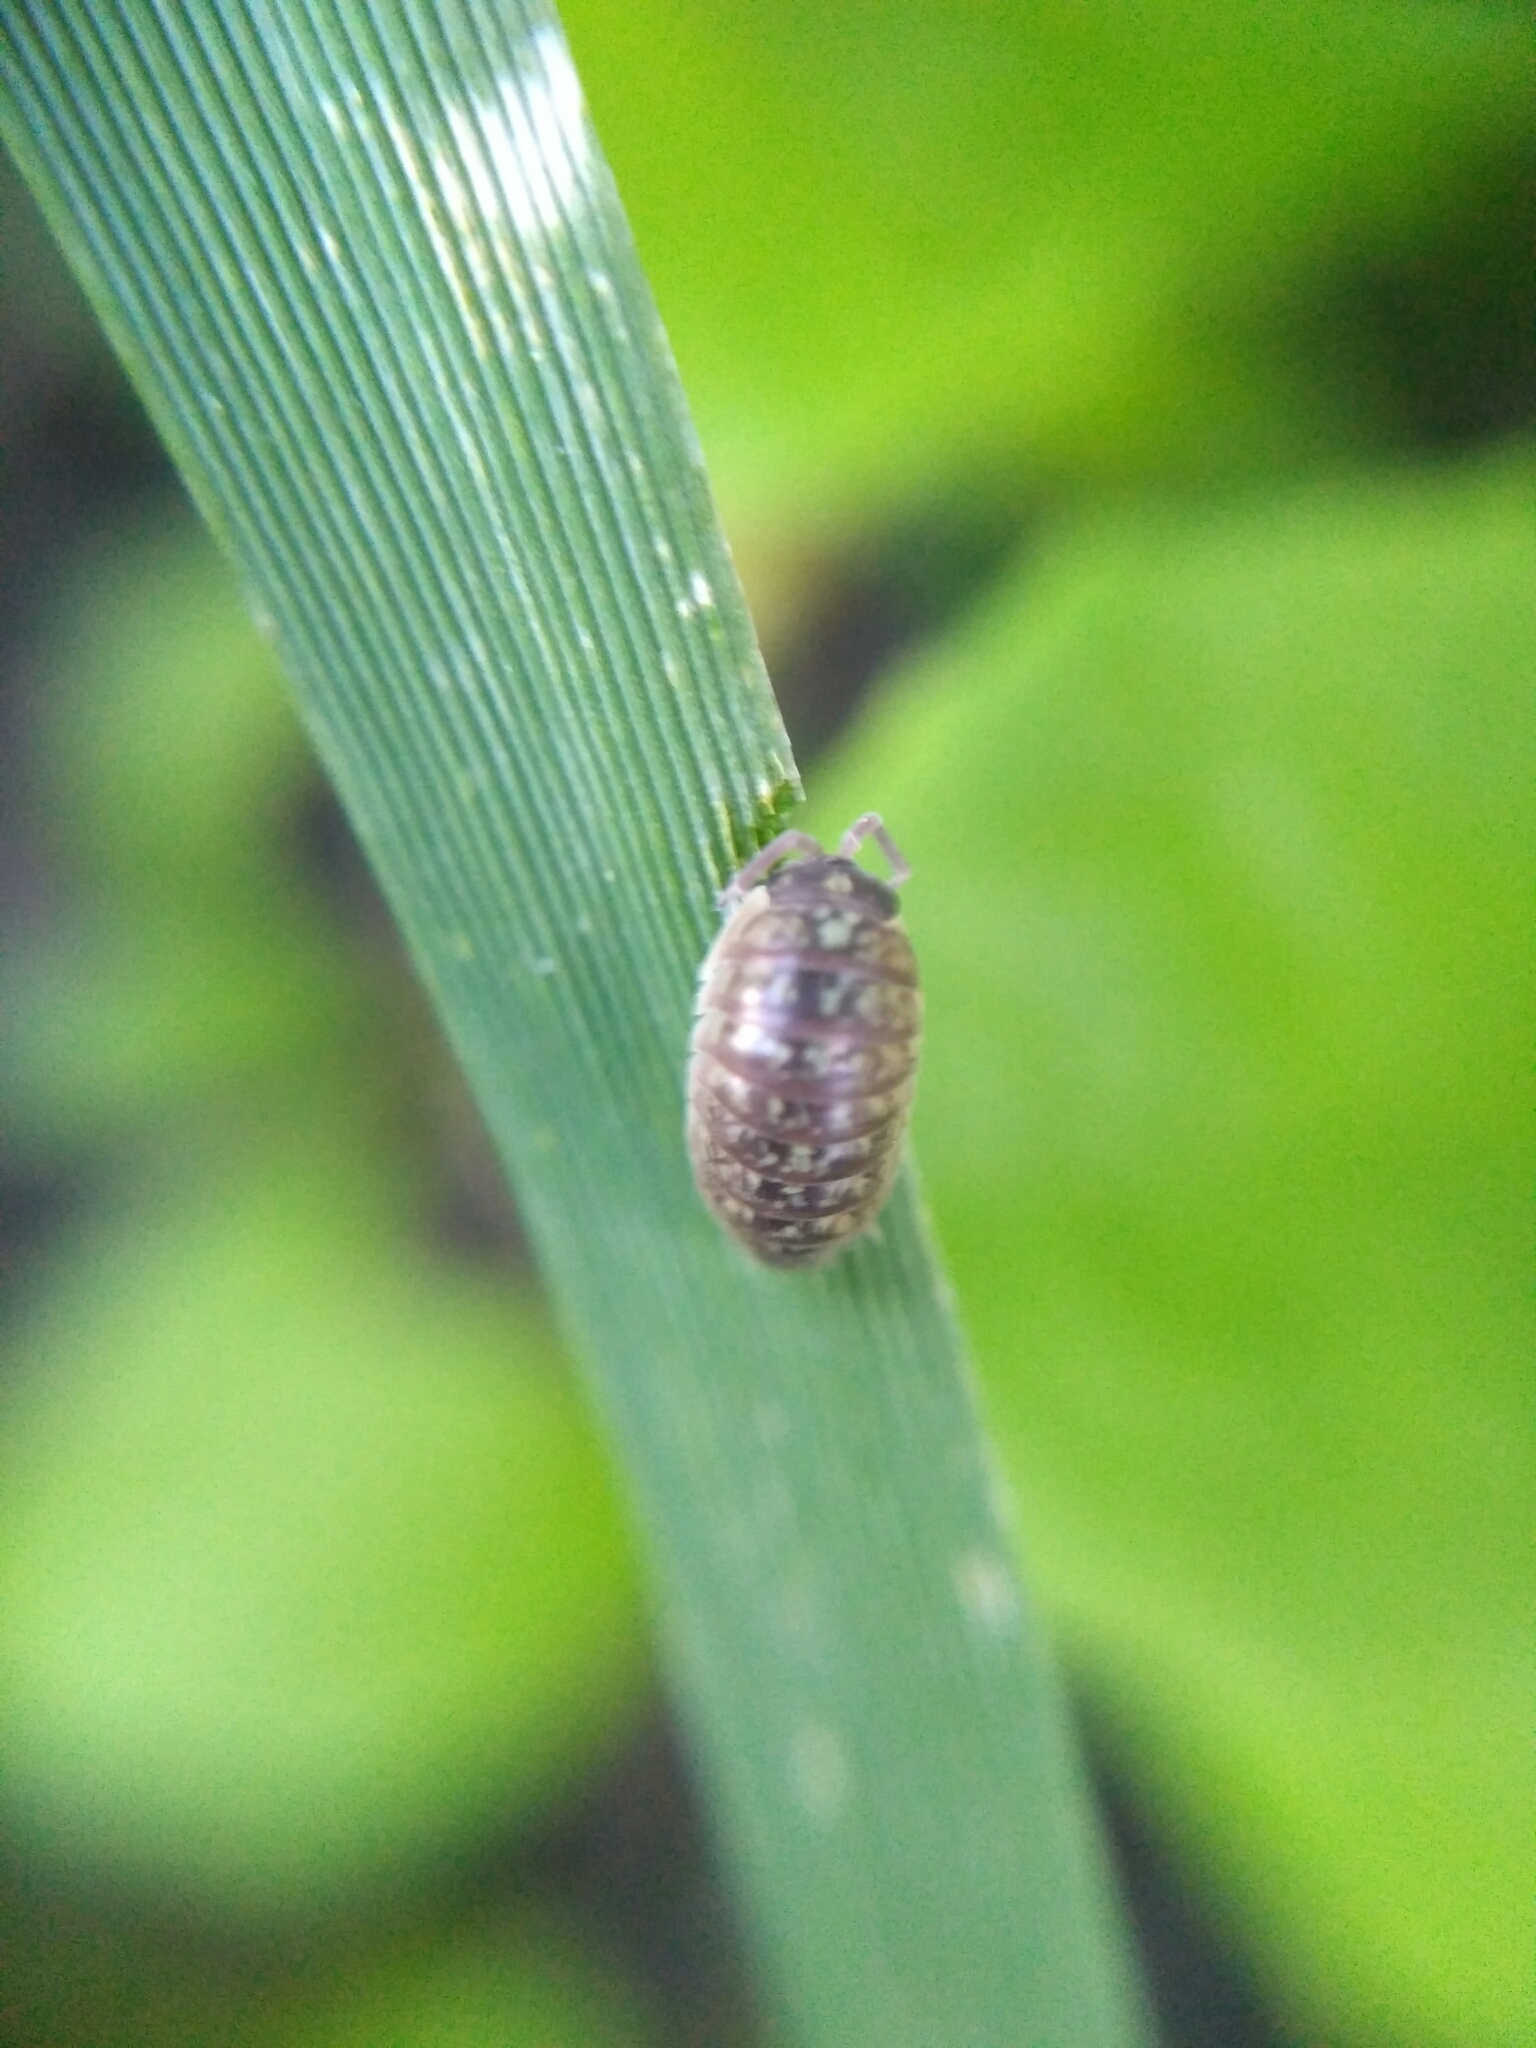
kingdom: Animalia
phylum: Arthropoda
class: Malacostraca
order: Isopoda
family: Armadillidiidae
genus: Armadillidium
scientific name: Armadillidium versicolor
